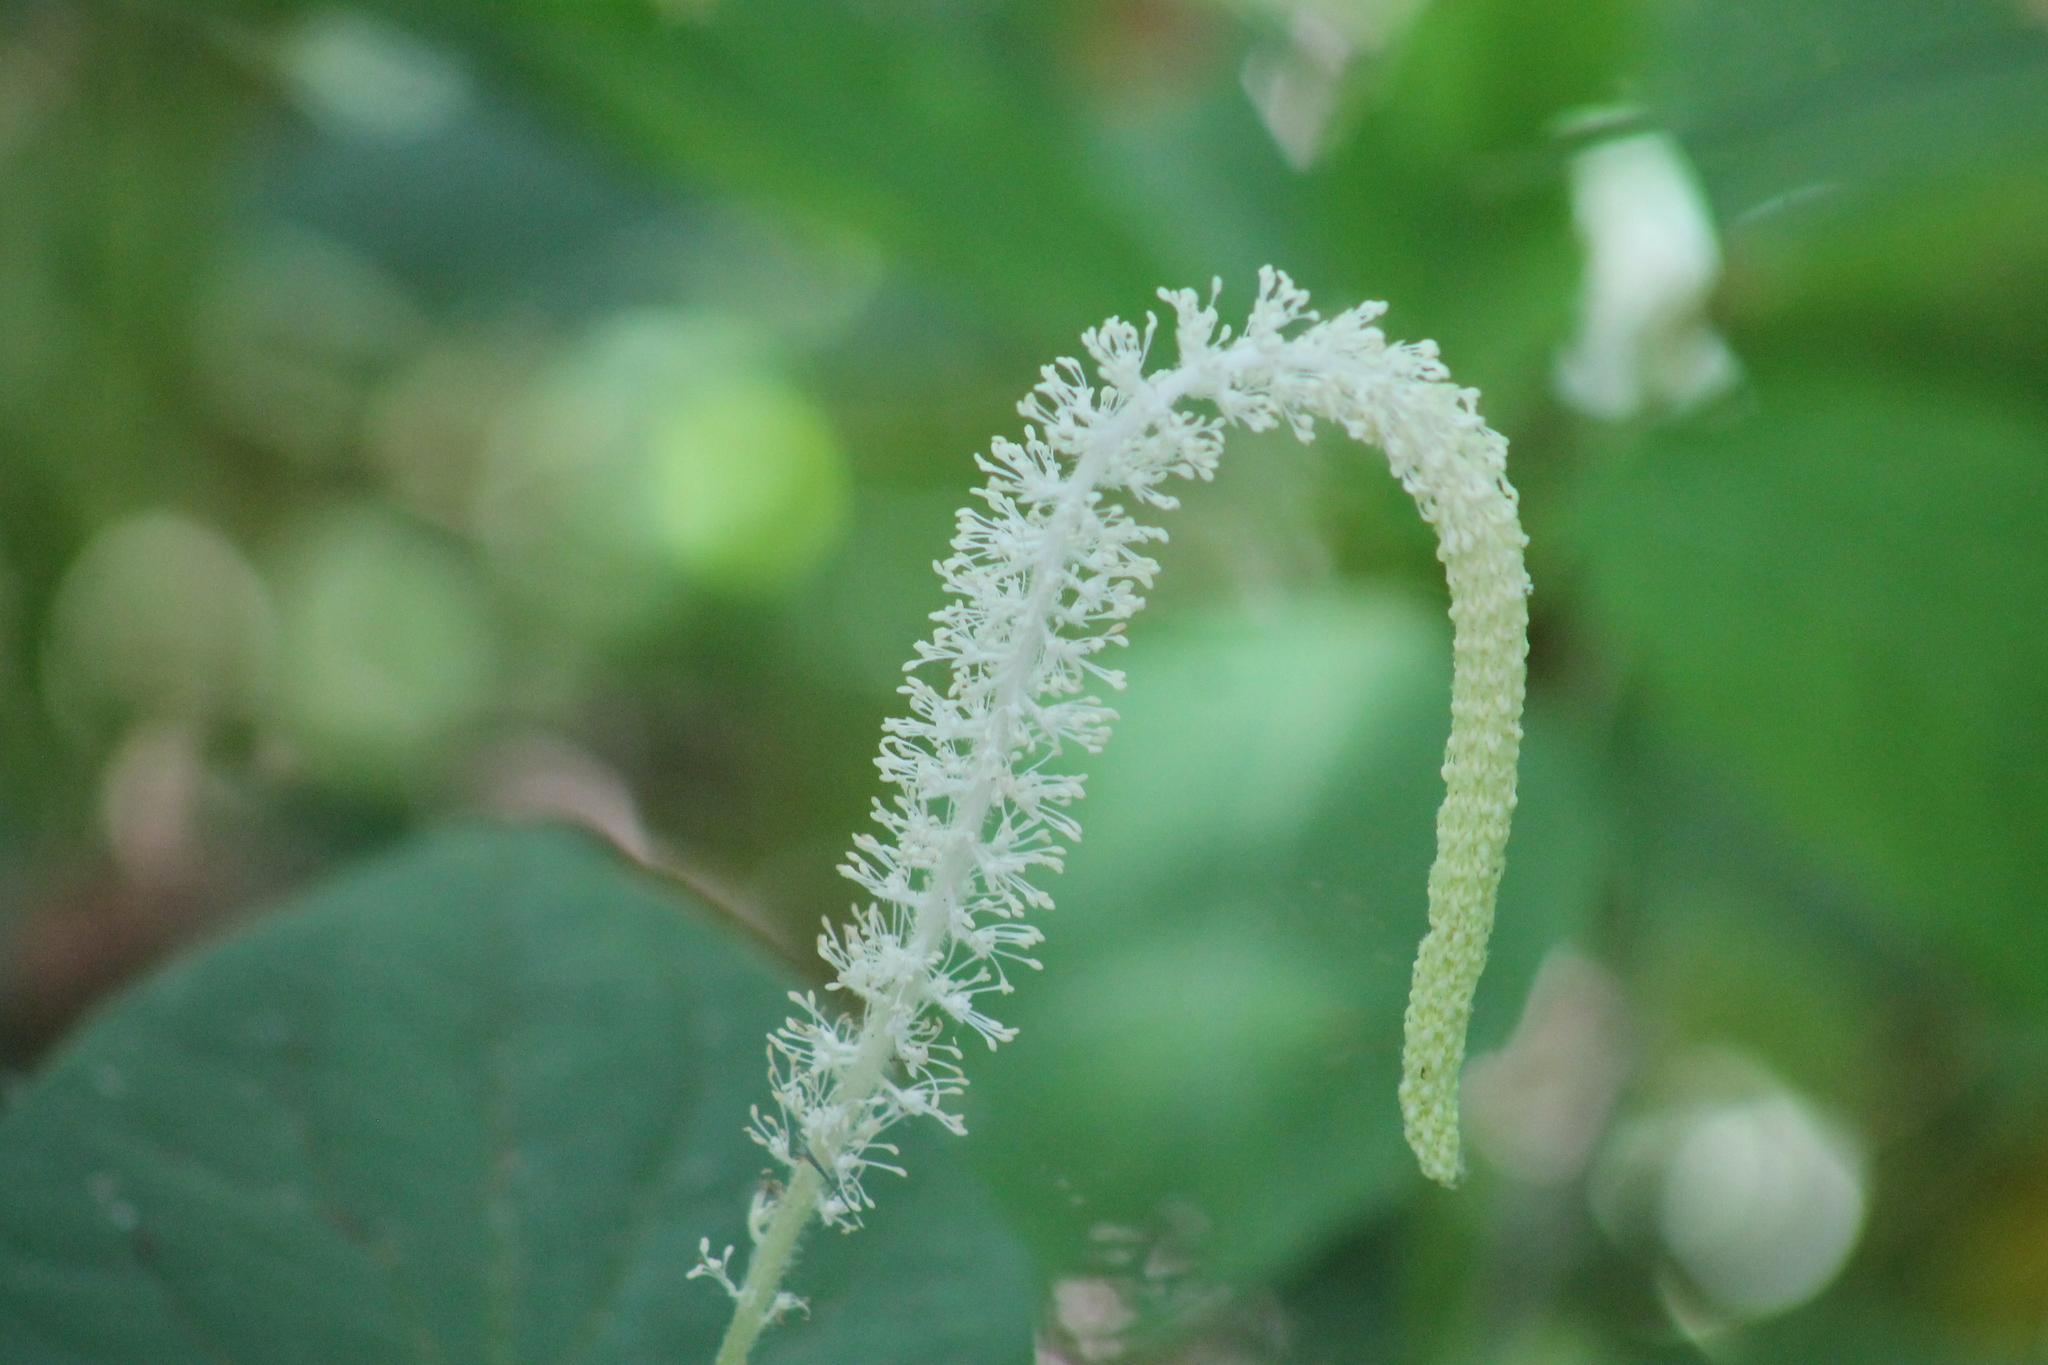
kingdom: Plantae
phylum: Tracheophyta
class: Magnoliopsida
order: Piperales
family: Saururaceae
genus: Saururus
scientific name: Saururus cernuus
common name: Lizard's-tail
